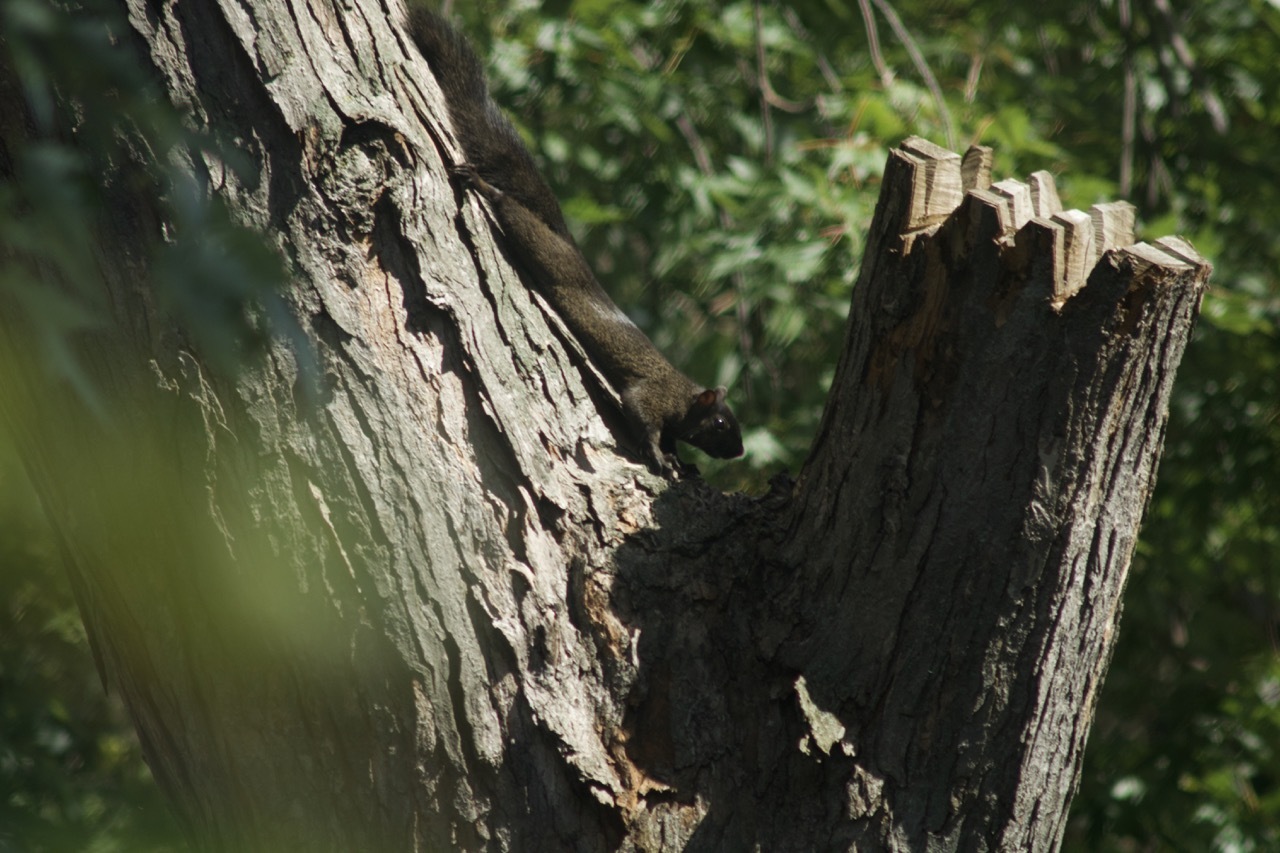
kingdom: Animalia
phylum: Chordata
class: Mammalia
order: Rodentia
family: Sciuridae
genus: Sciurus
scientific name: Sciurus carolinensis
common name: Eastern gray squirrel
